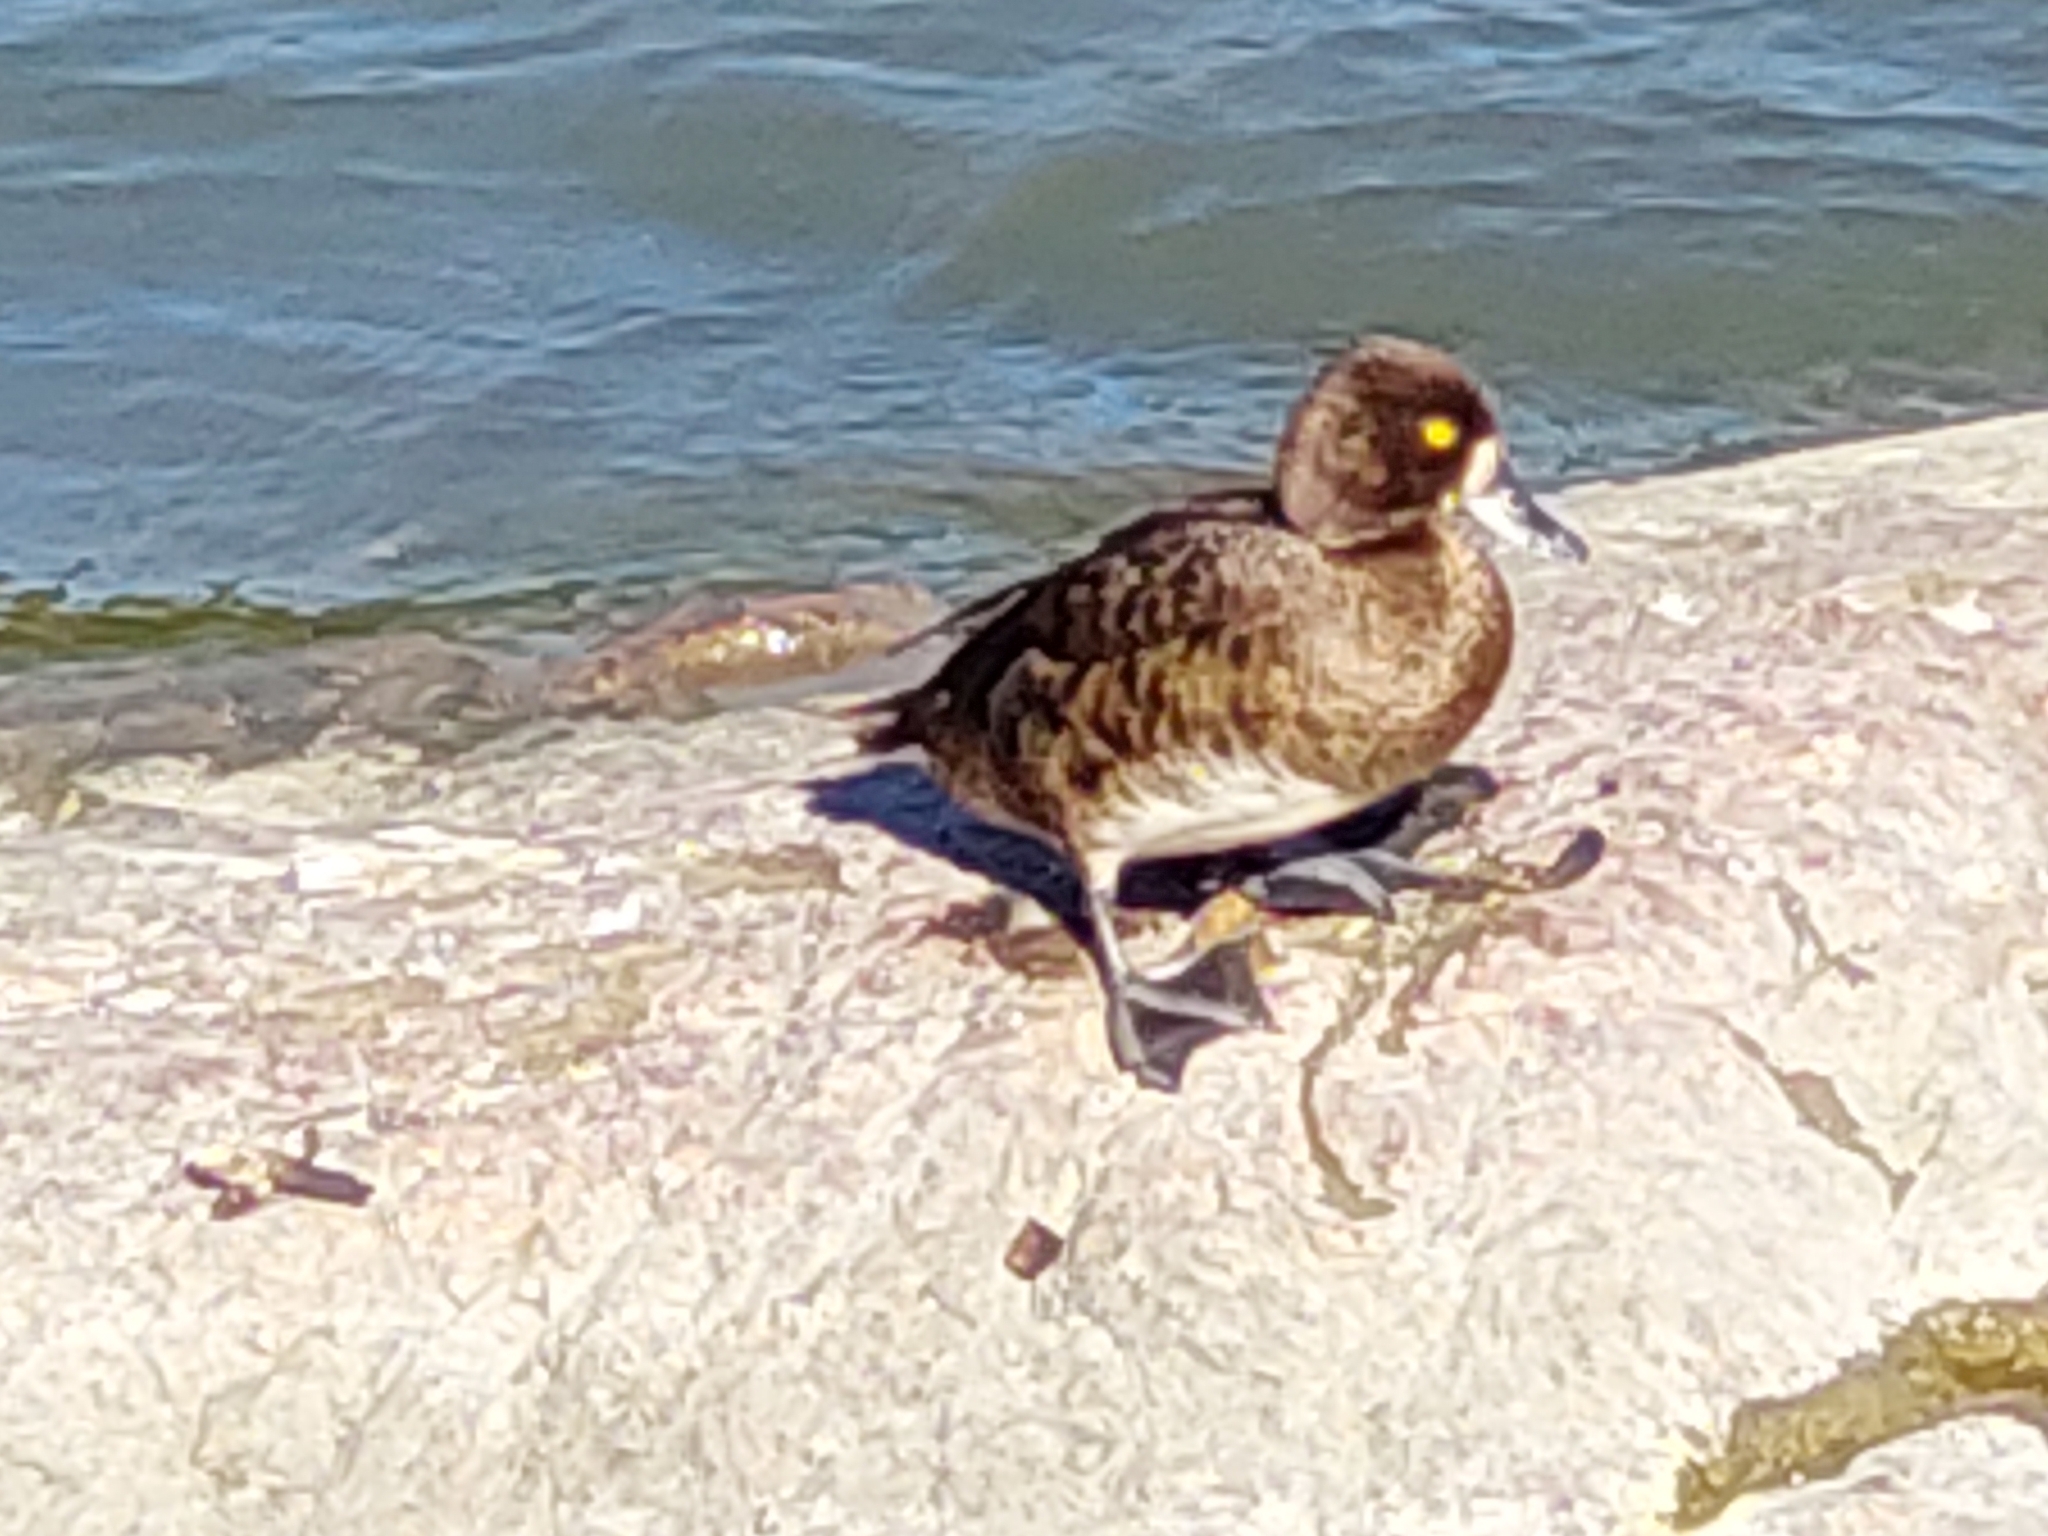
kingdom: Animalia
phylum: Chordata
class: Aves
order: Anseriformes
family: Anatidae
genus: Aythya
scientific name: Aythya fuligula
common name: Tufted duck
